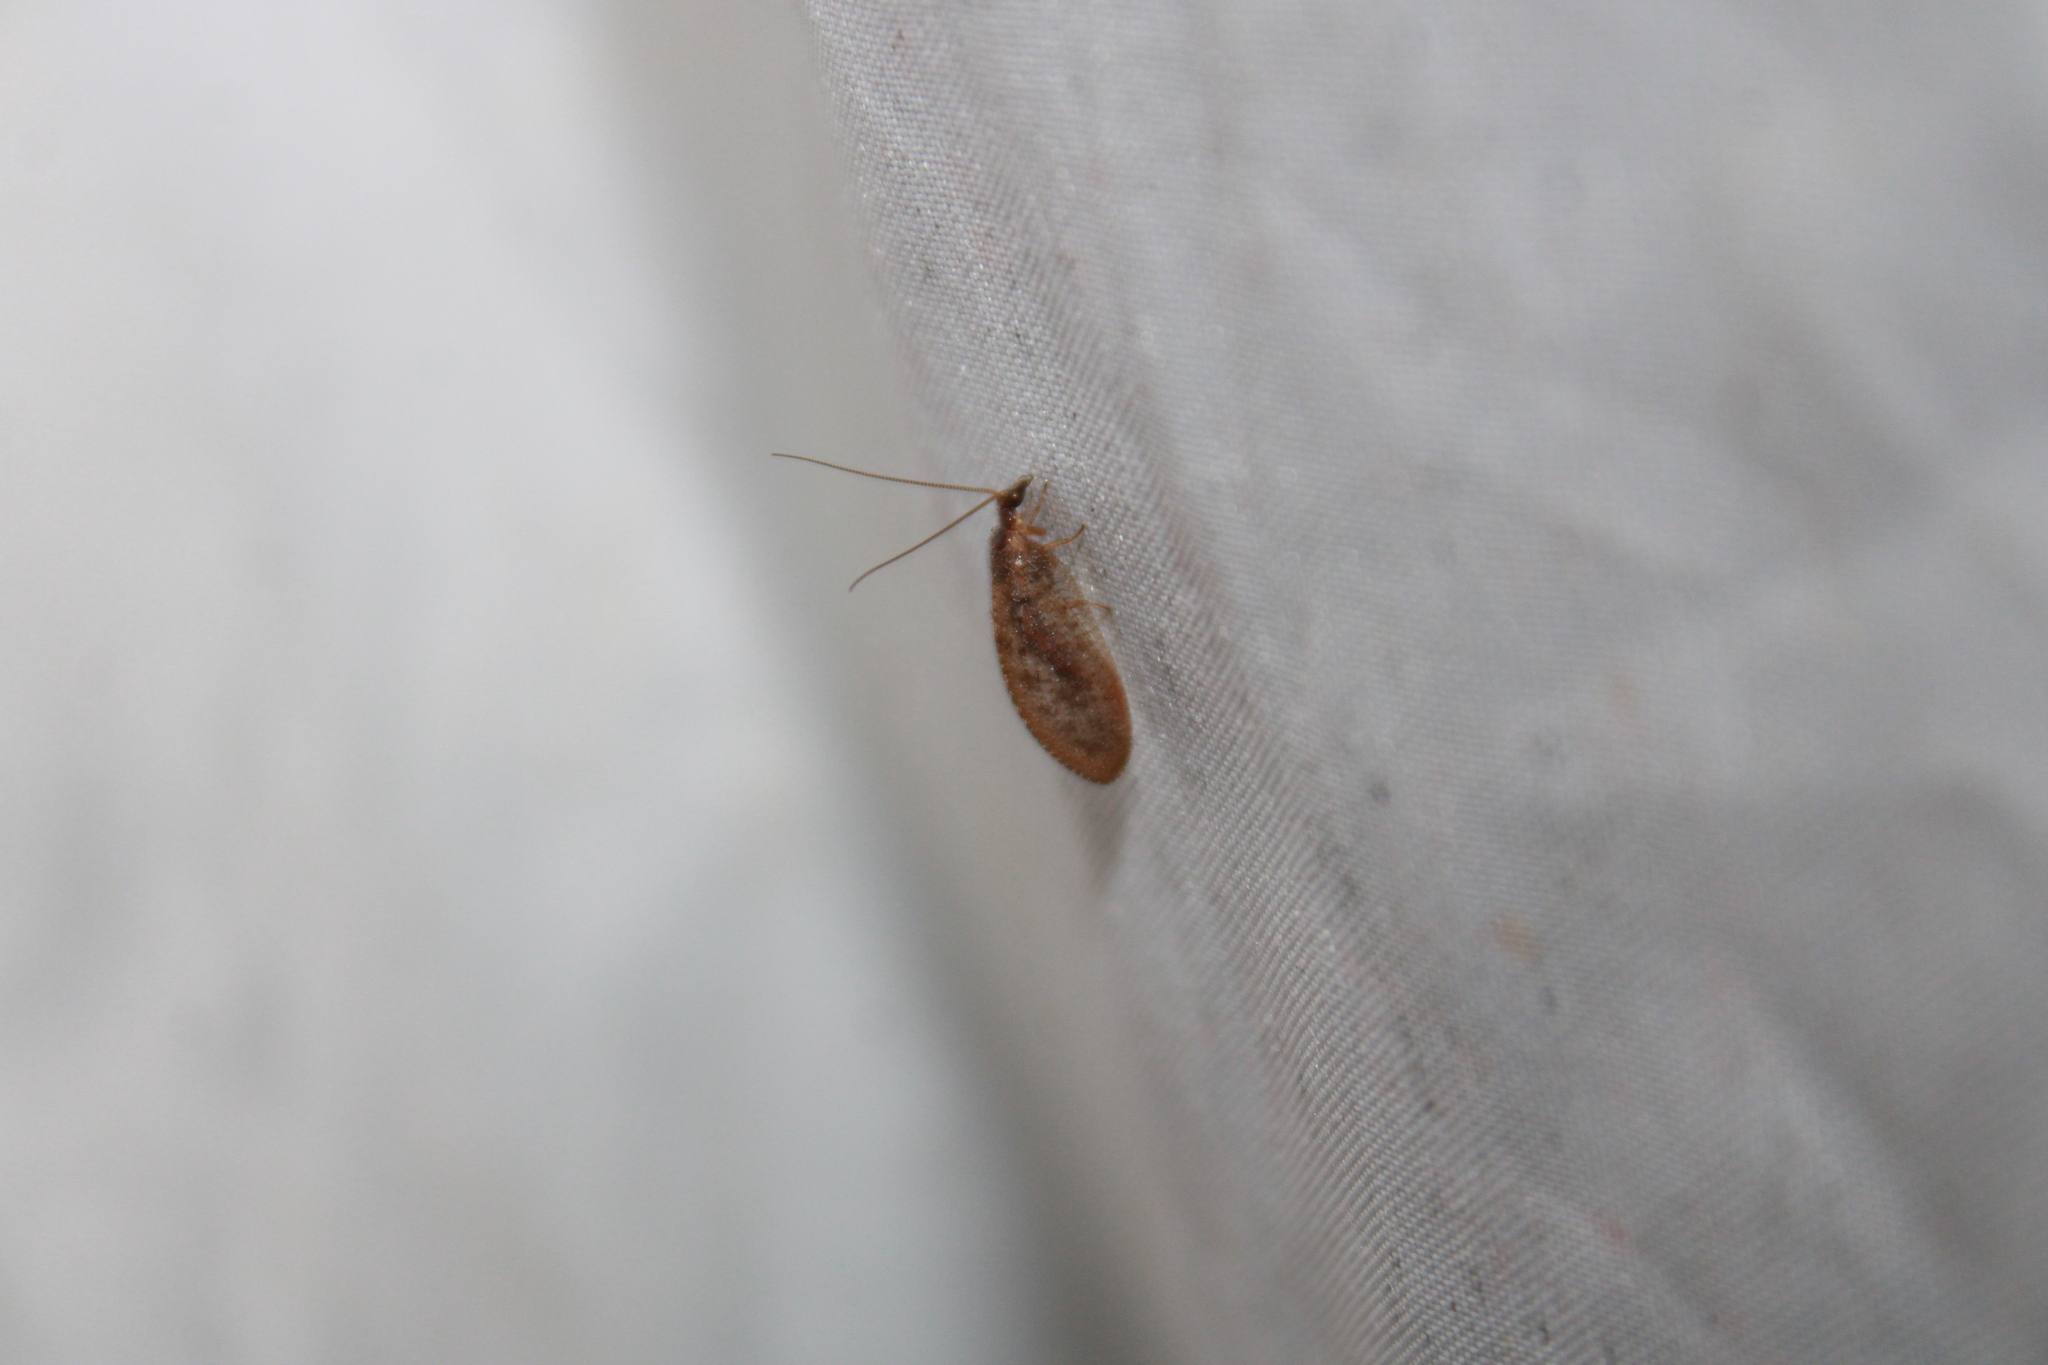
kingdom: Animalia
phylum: Arthropoda
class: Insecta
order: Neuroptera
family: Hemerobiidae
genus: Hemerobius
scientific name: Hemerobius stigma
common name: Brown pine lacewing
